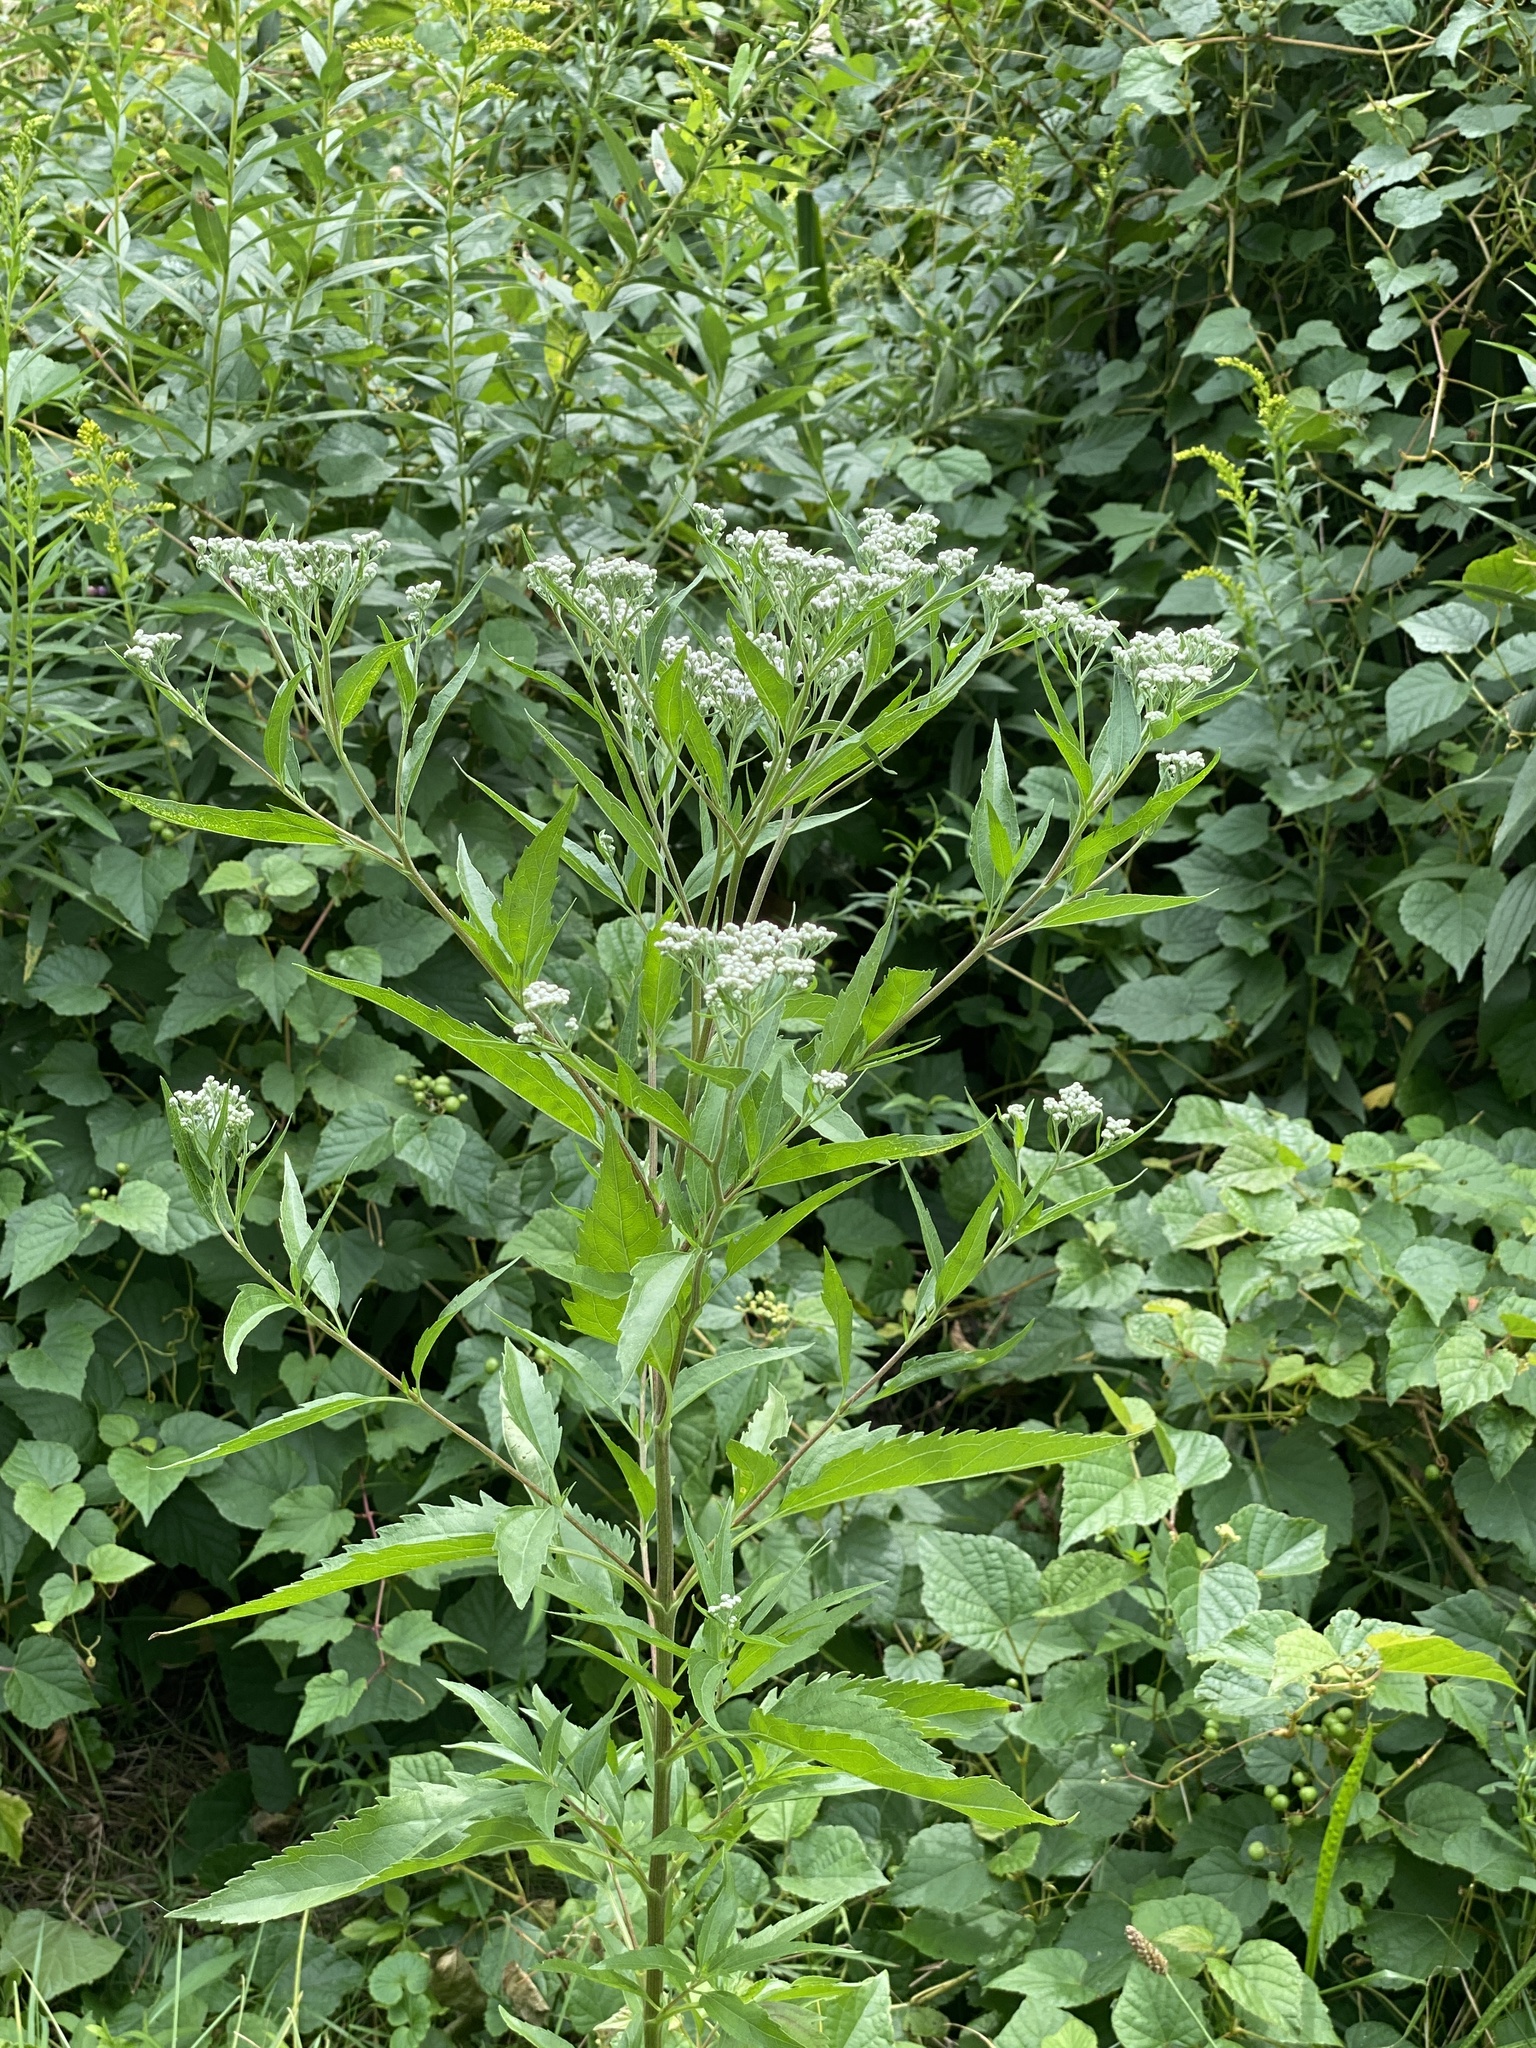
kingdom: Plantae
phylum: Tracheophyta
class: Magnoliopsida
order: Asterales
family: Asteraceae
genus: Eupatorium
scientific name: Eupatorium serotinum
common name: Late boneset
